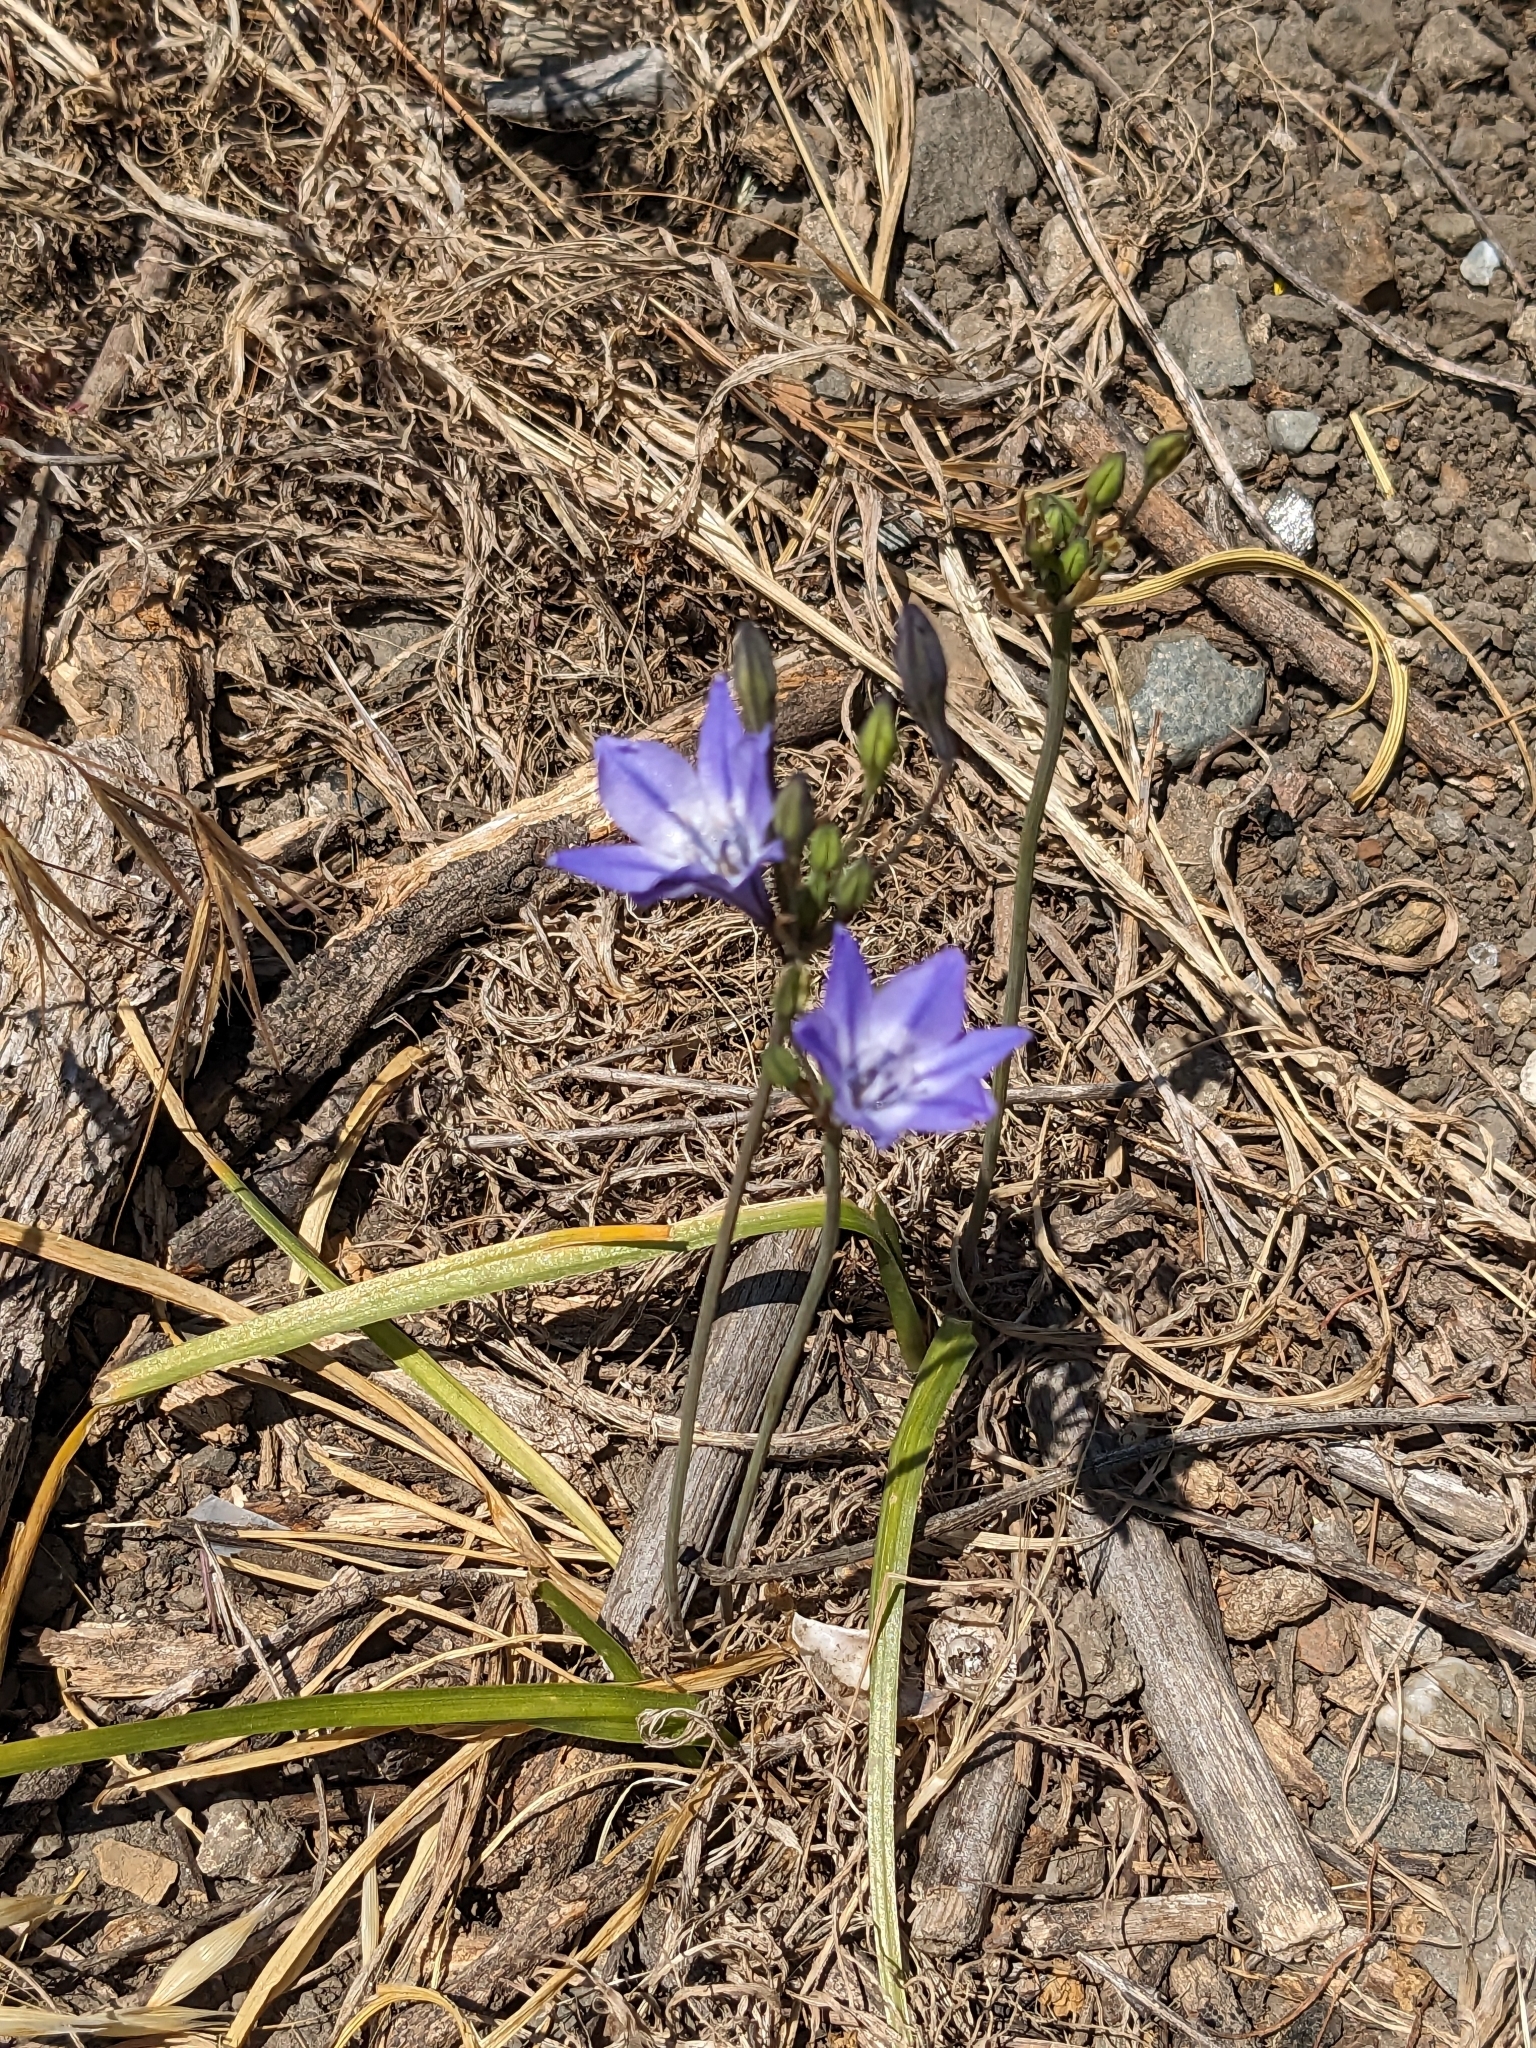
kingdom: Plantae
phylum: Tracheophyta
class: Liliopsida
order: Asparagales
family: Asparagaceae
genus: Triteleia
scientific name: Triteleia laxa
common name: Triplet-lily
